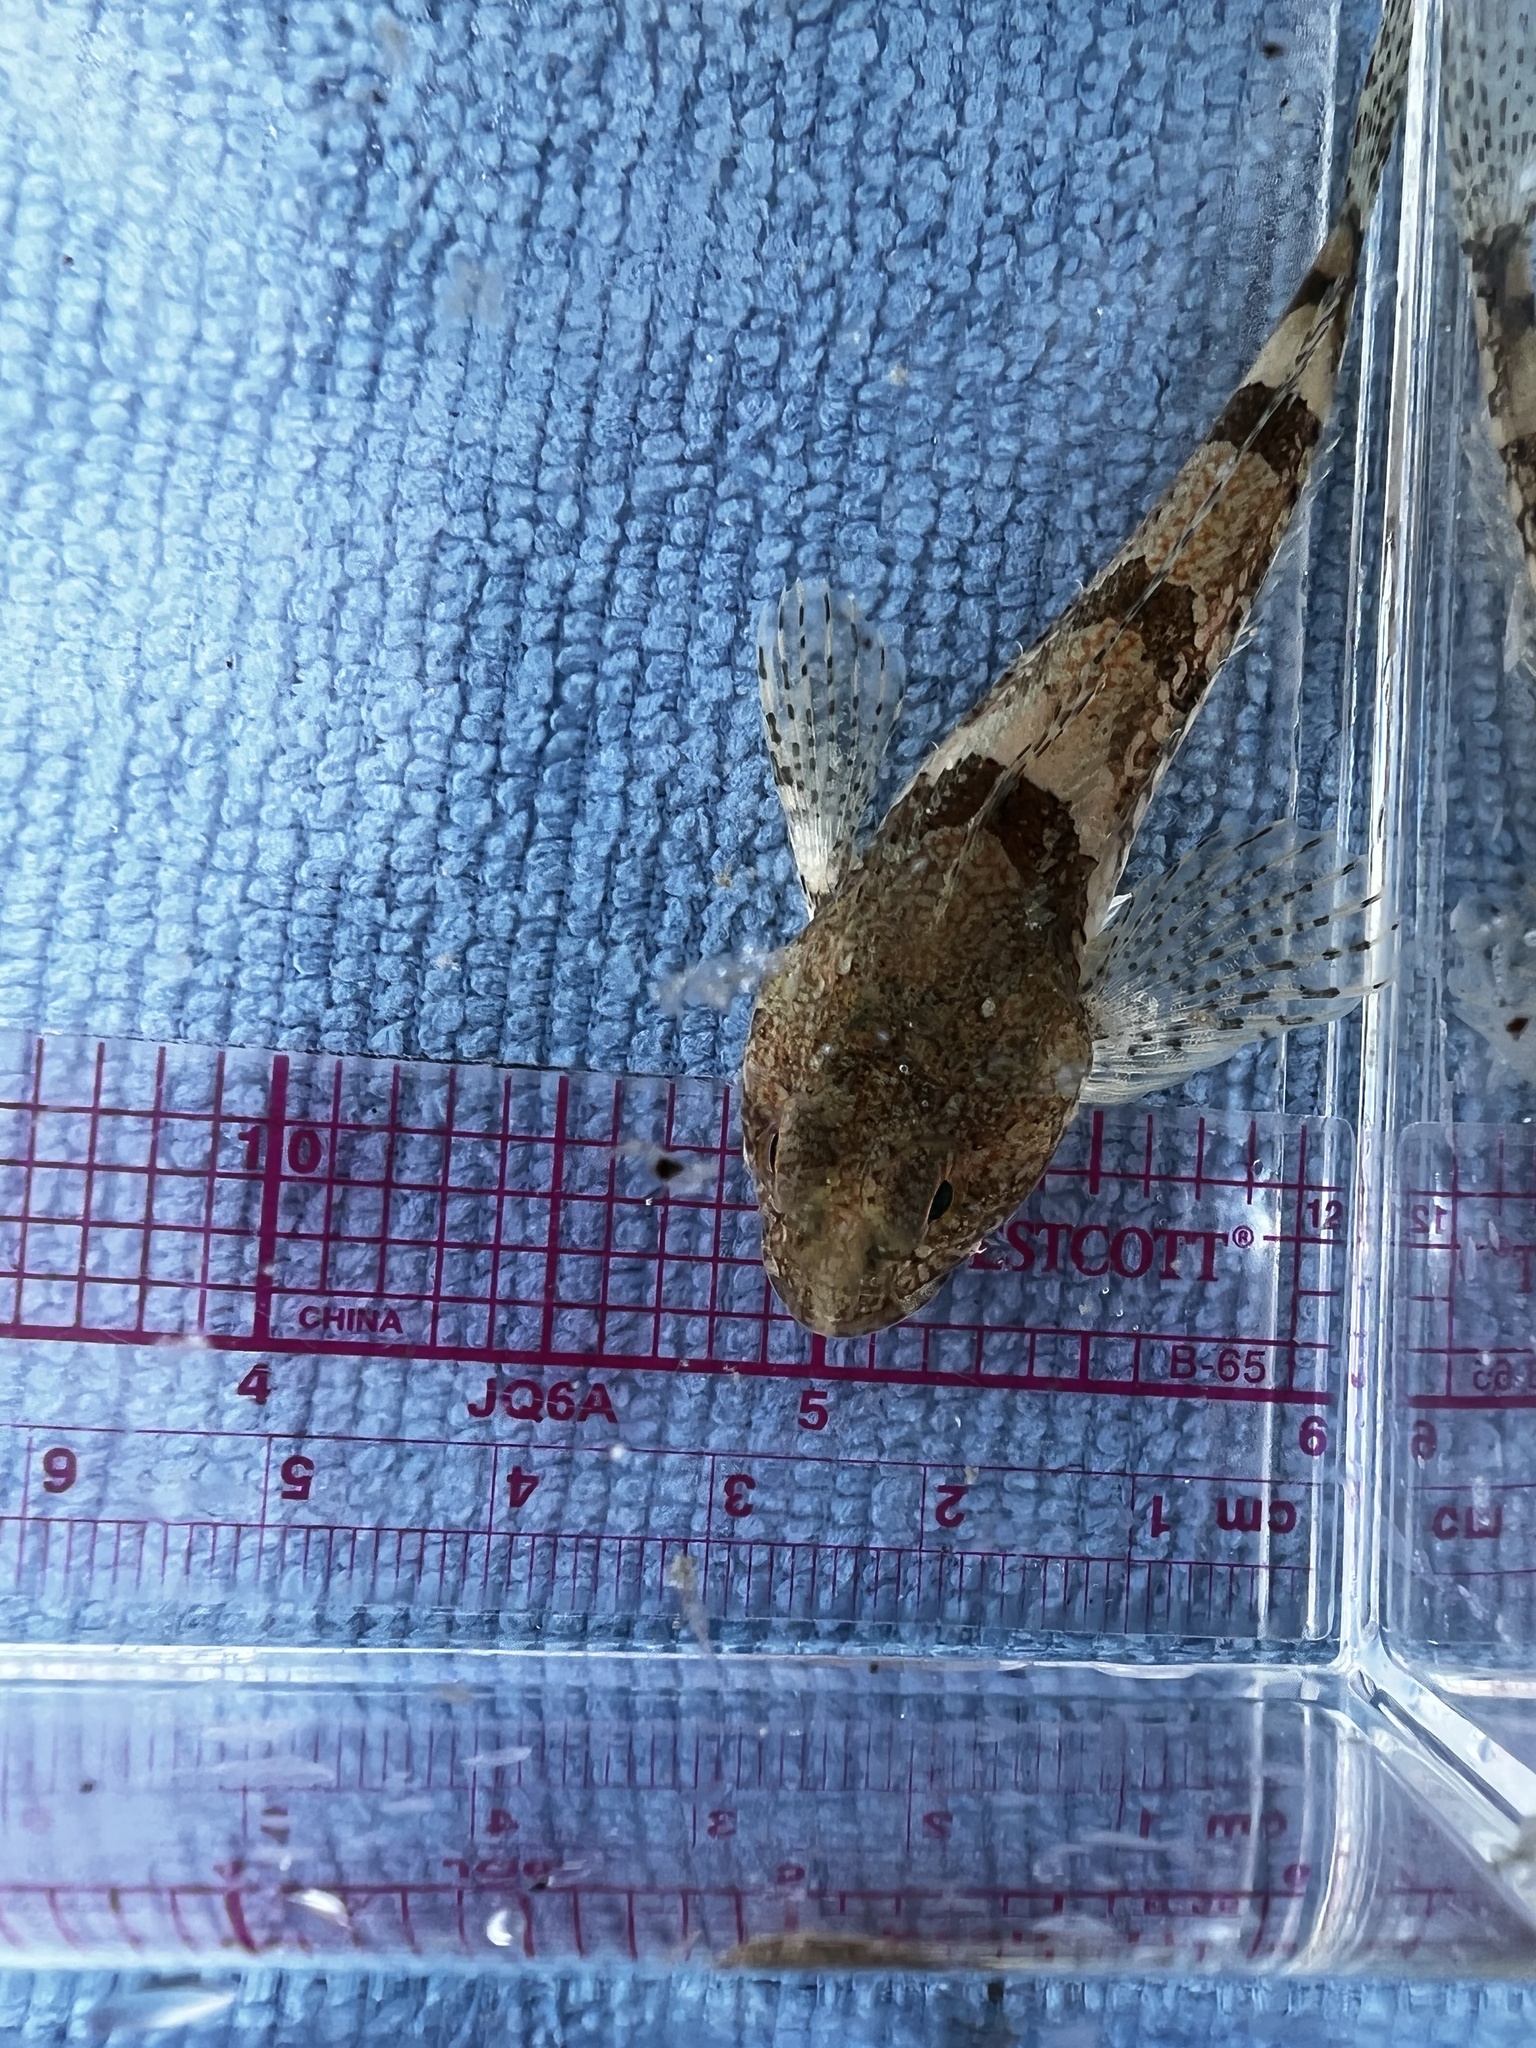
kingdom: Animalia
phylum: Chordata
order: Scorpaeniformes
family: Cottidae
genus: Artedius
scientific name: Artedius fenestralis
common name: Padded sculpin
